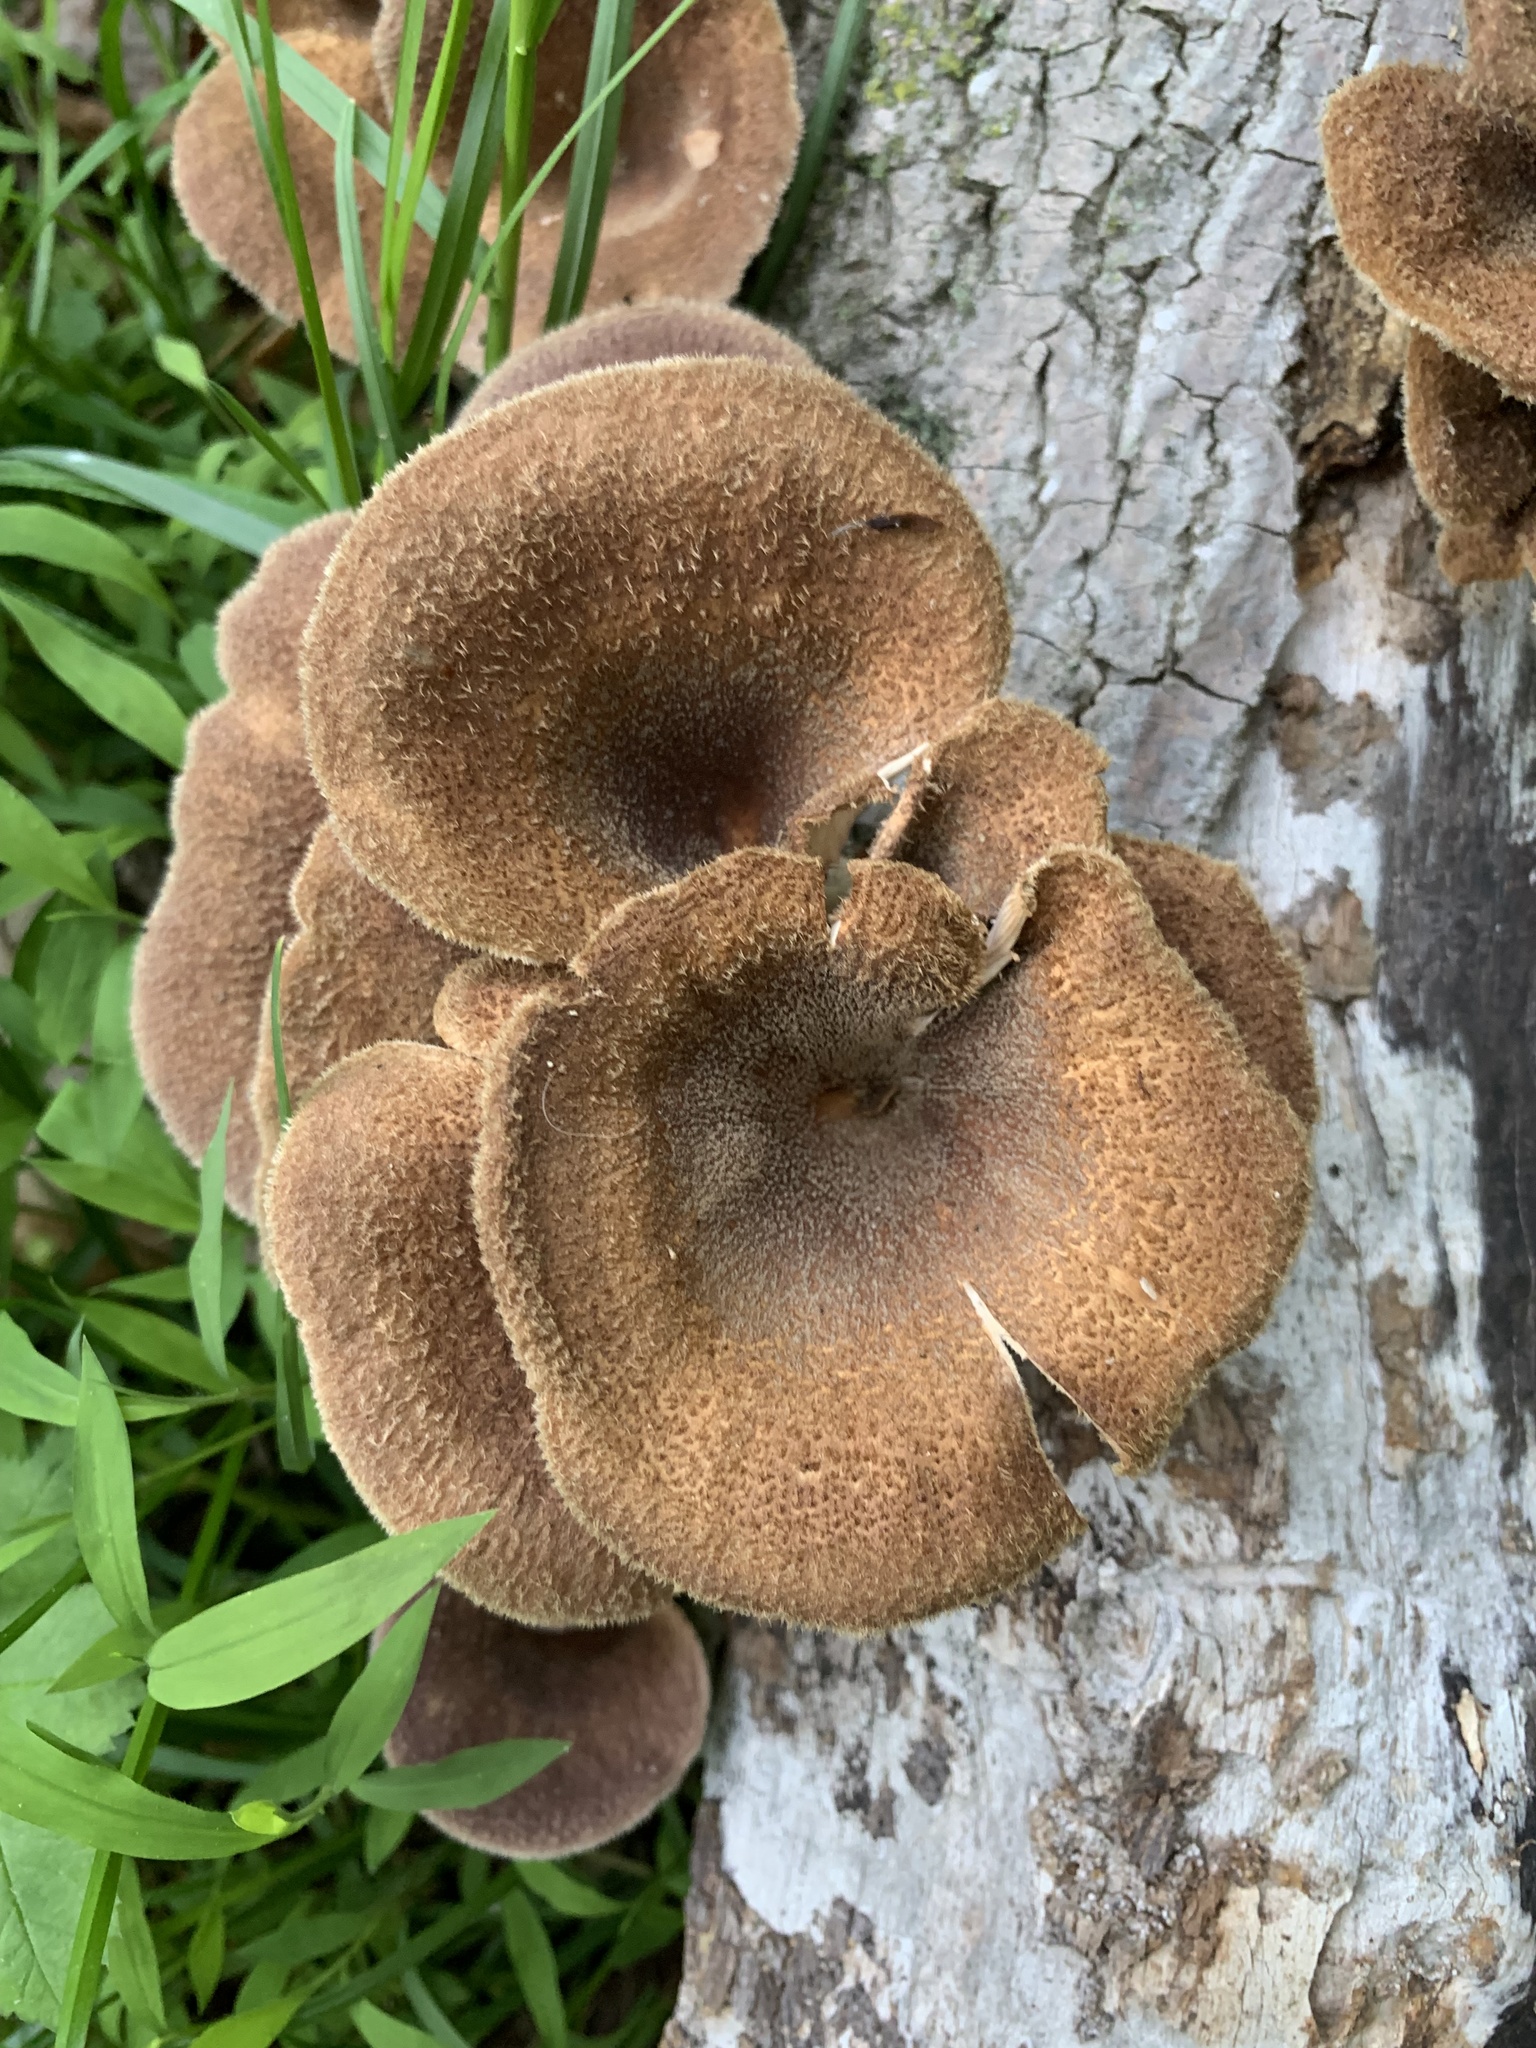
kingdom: Fungi
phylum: Basidiomycota
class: Agaricomycetes
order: Polyporales
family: Panaceae
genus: Panus
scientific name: Panus neostrigosus
